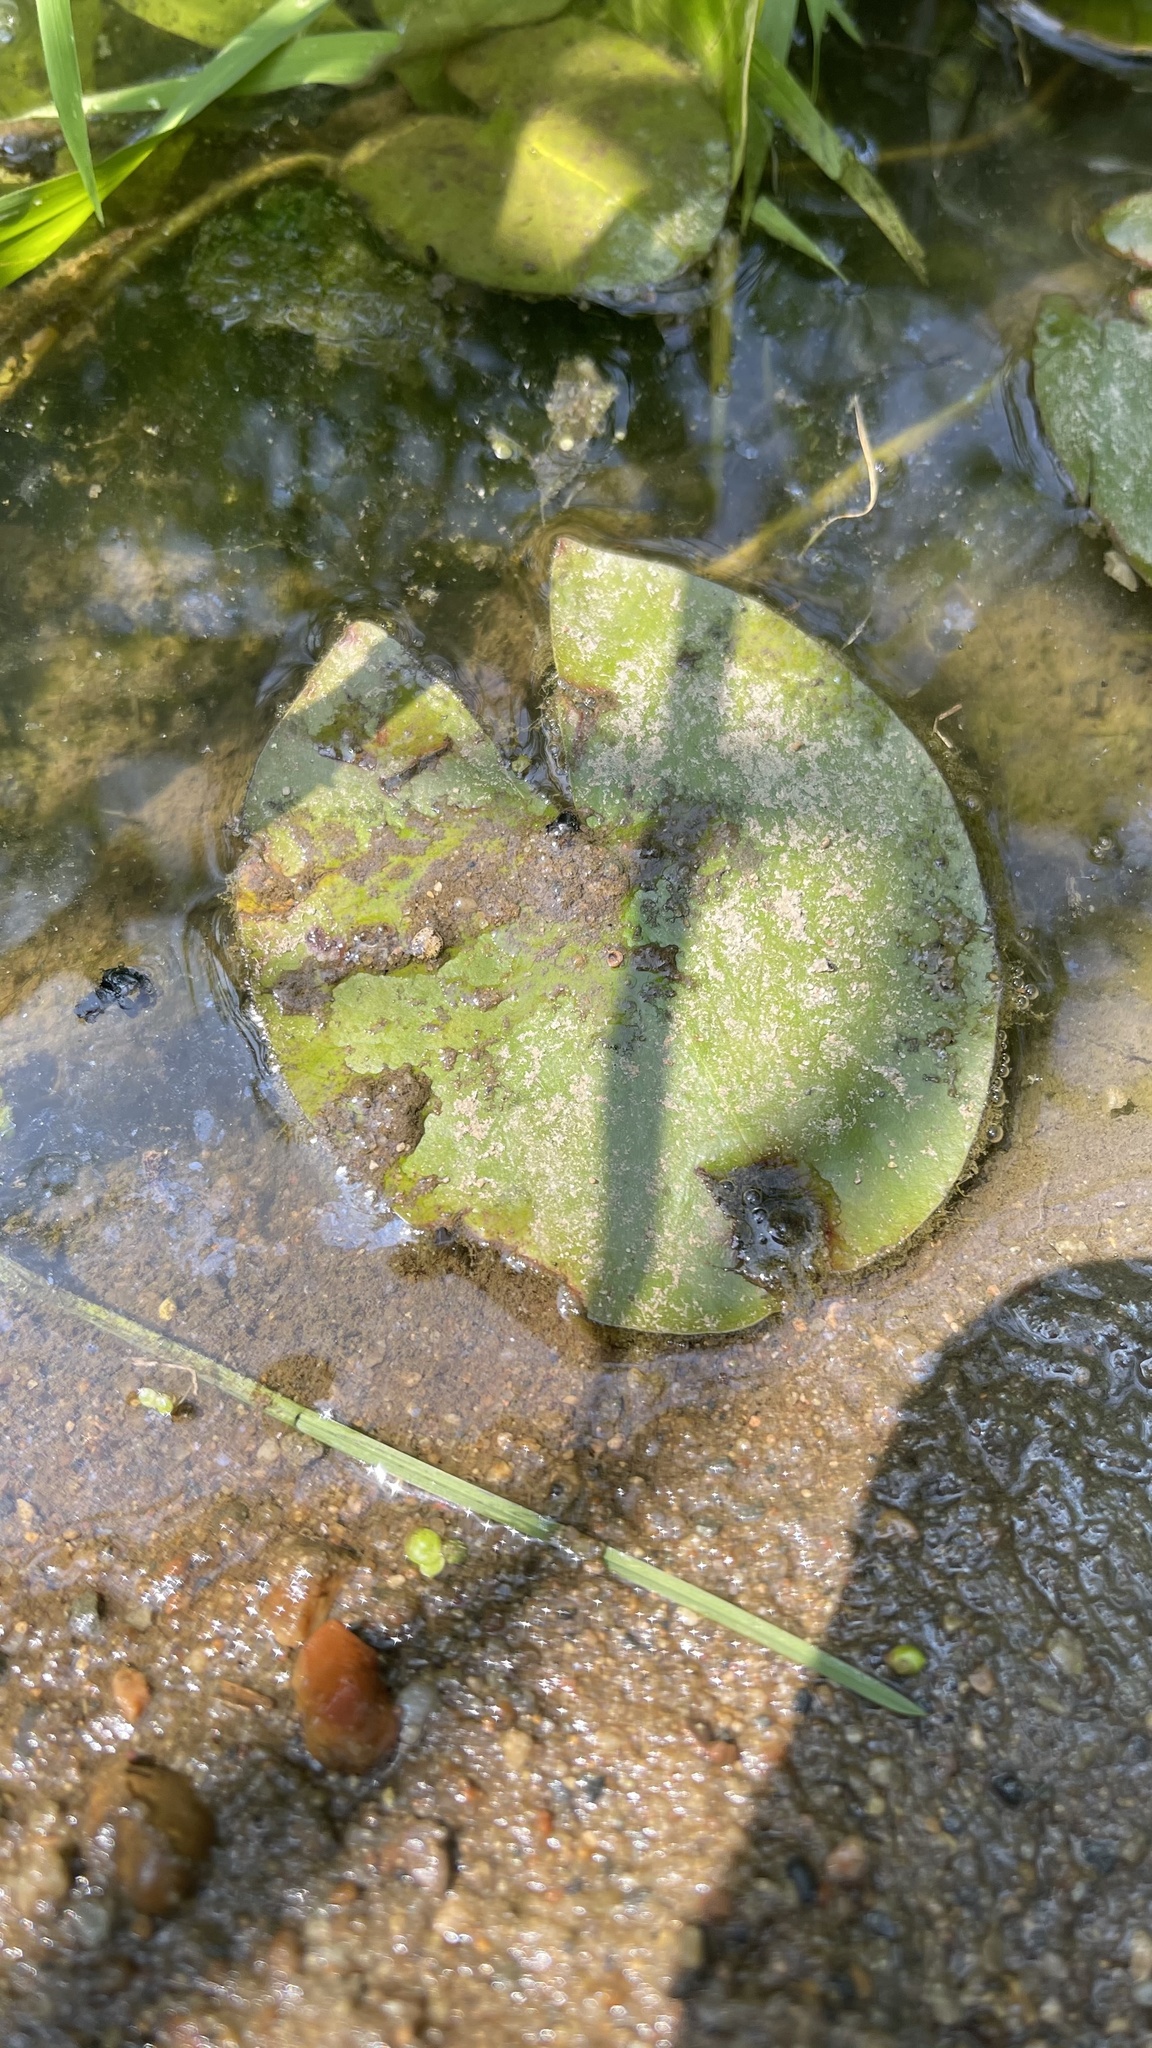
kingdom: Plantae
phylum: Tracheophyta
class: Magnoliopsida
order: Nymphaeales
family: Nymphaeaceae
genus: Nymphaea
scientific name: Nymphaea odorata
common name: Fragrant water-lily
